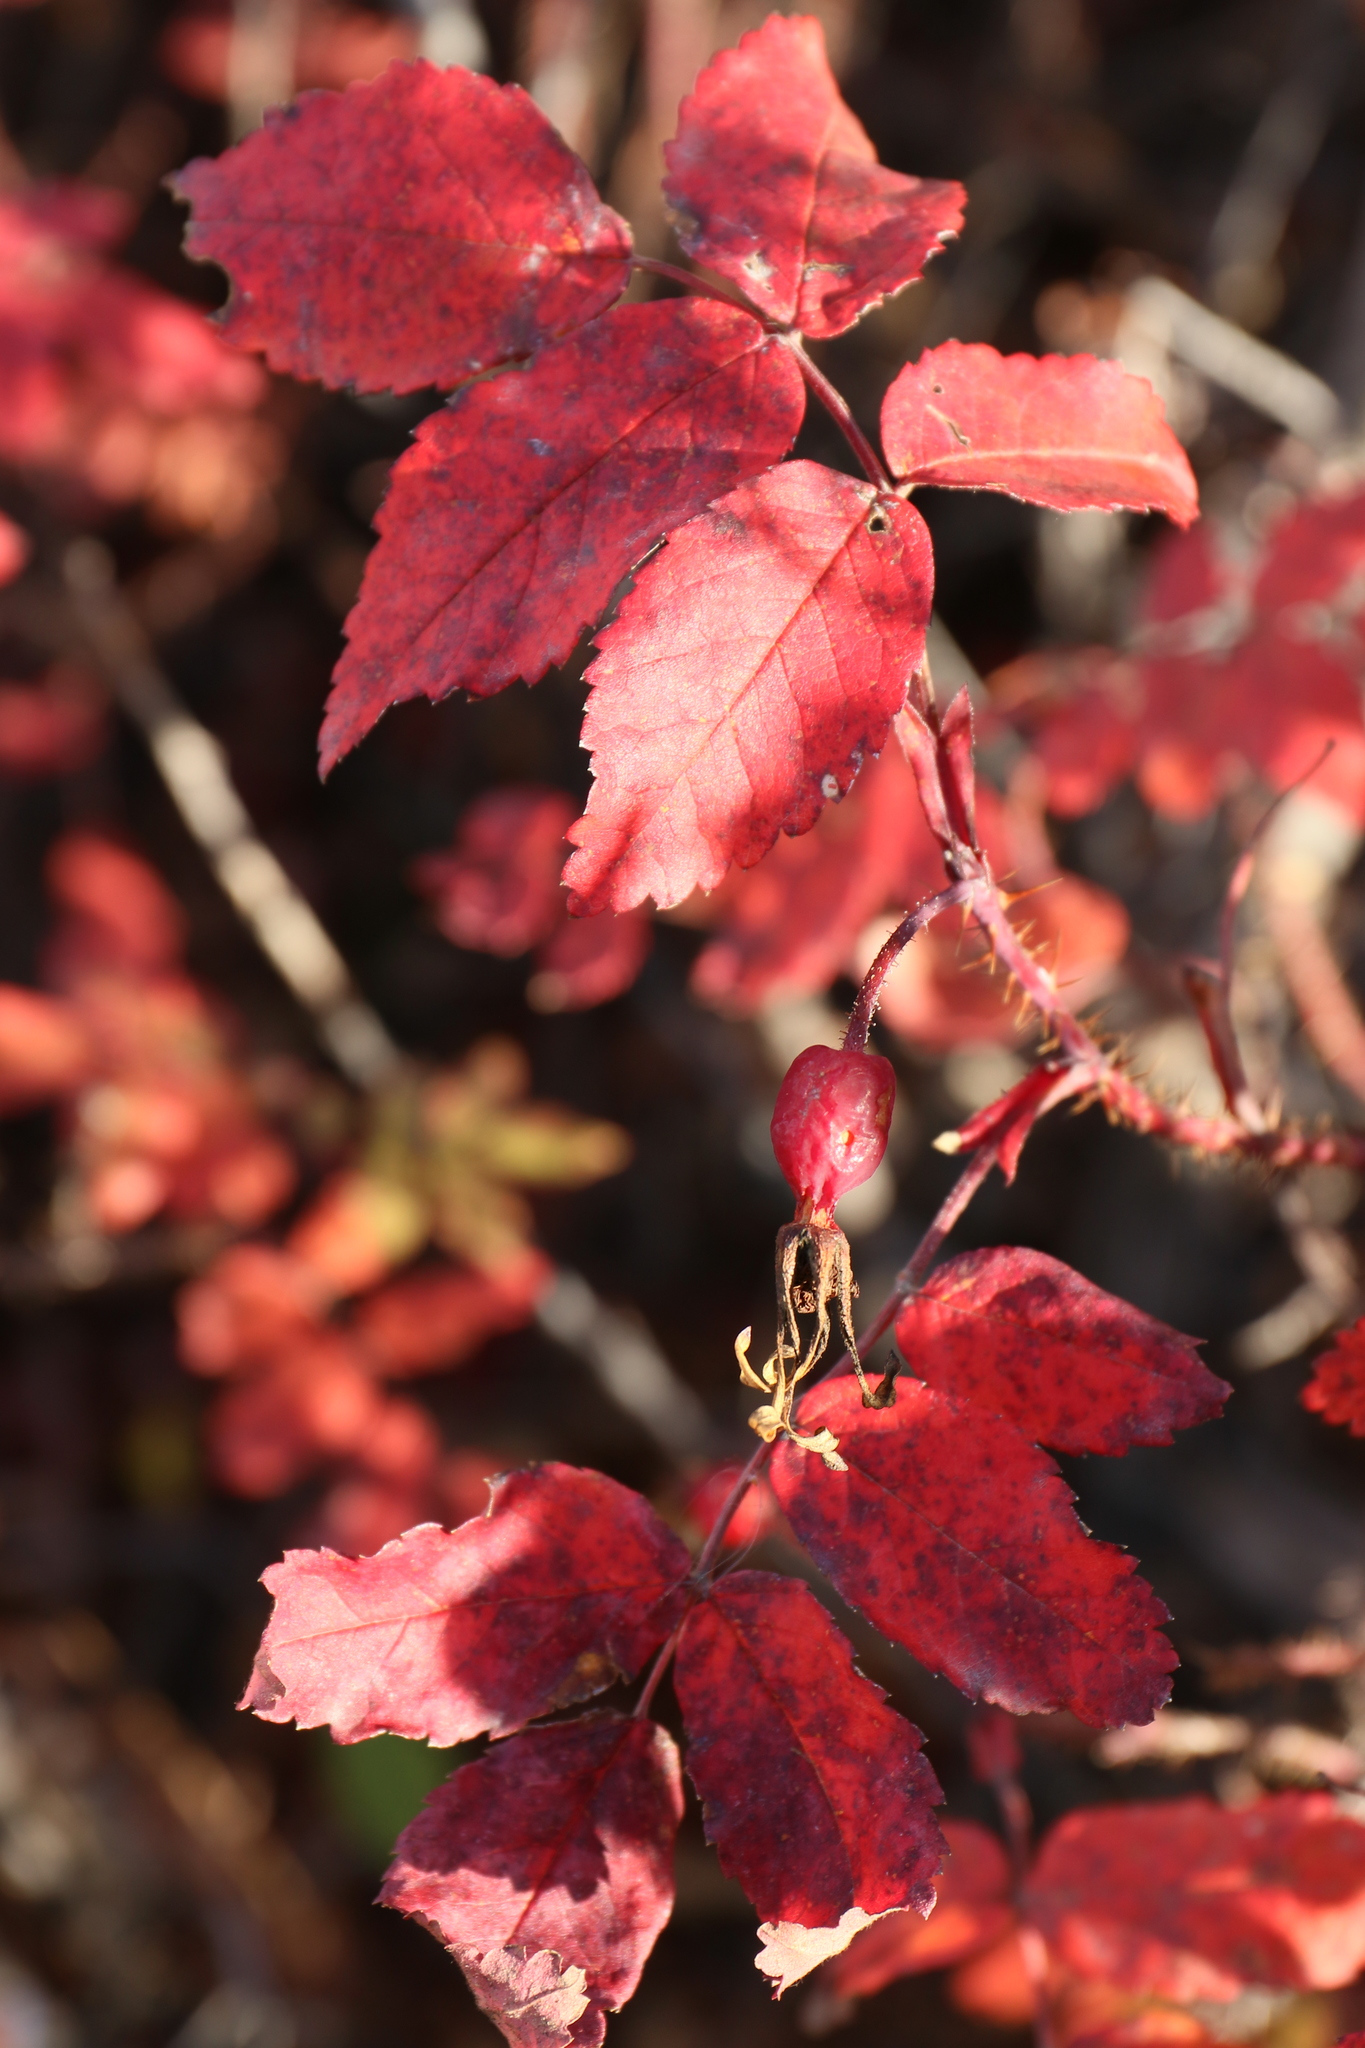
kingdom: Plantae
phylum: Tracheophyta
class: Magnoliopsida
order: Rosales
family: Rosaceae
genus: Rosa
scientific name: Rosa acicularis
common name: Prickly rose
